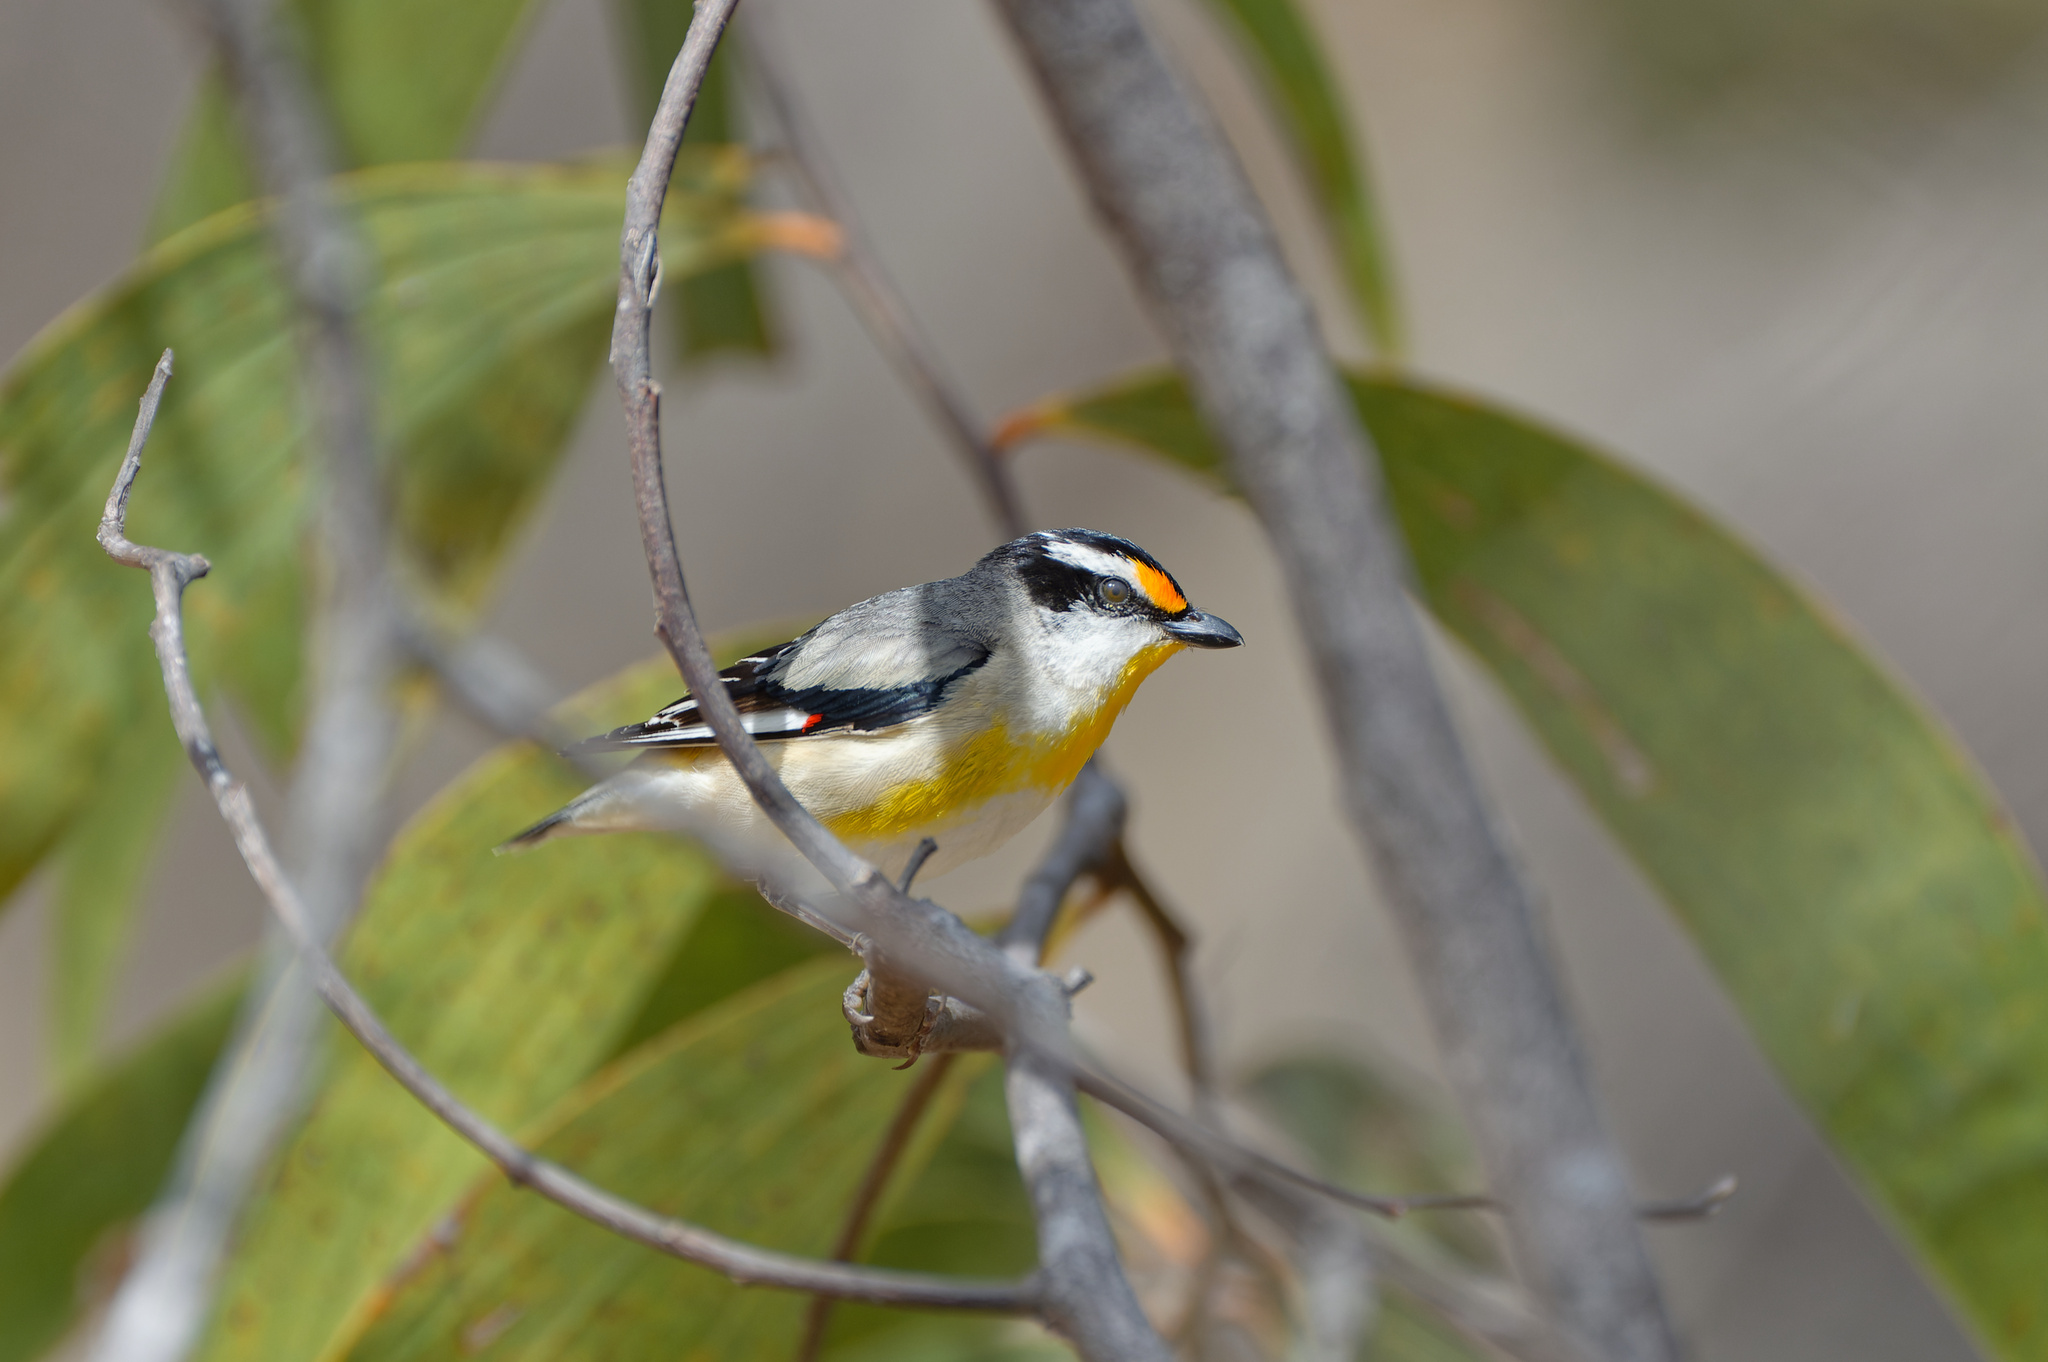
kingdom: Animalia
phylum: Chordata
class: Aves
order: Passeriformes
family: Pardalotidae
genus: Pardalotus
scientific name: Pardalotus striatus
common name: Striated pardalote
